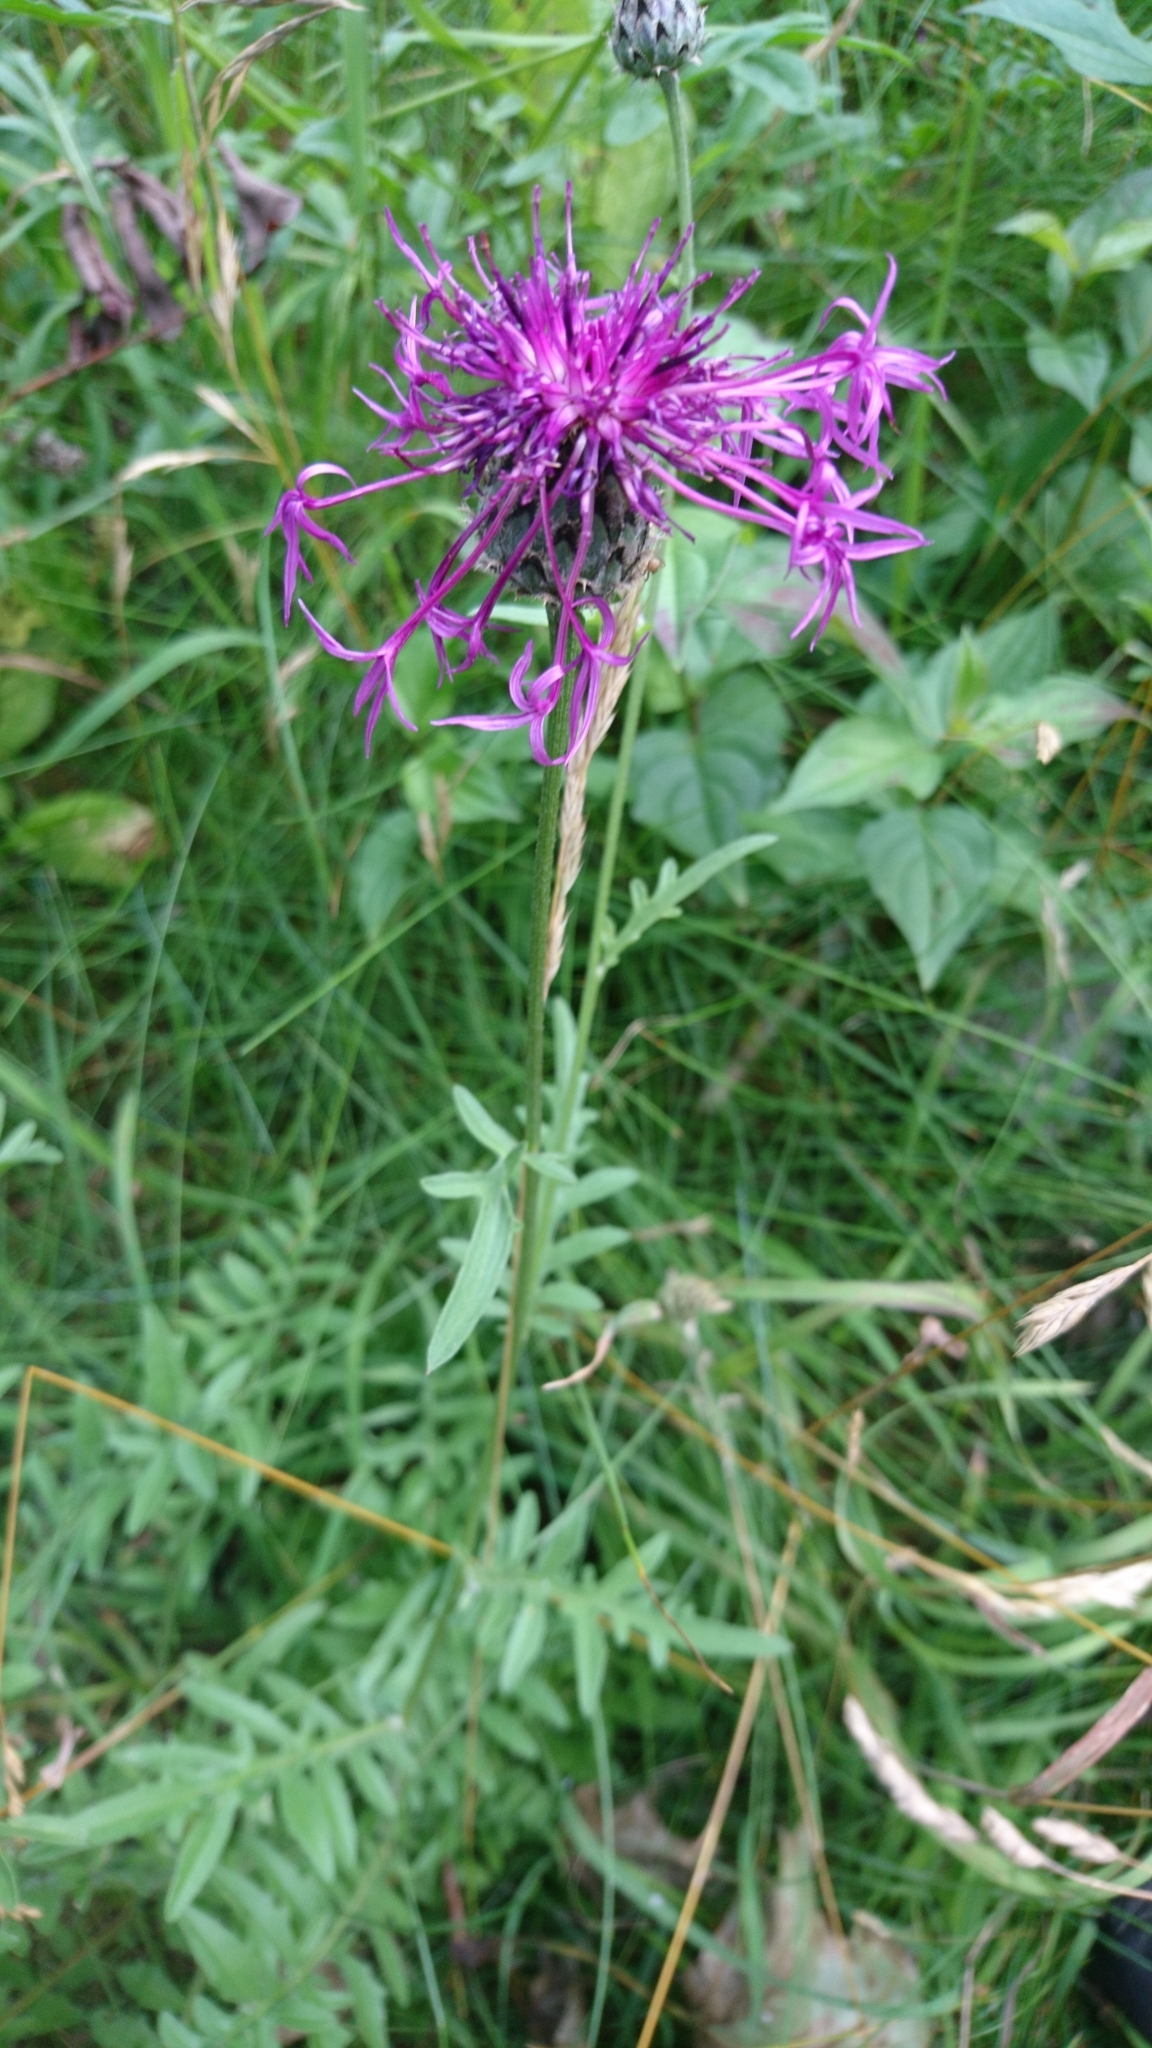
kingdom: Plantae
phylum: Tracheophyta
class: Magnoliopsida
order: Asterales
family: Asteraceae
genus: Centaurea
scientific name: Centaurea scabiosa
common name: Greater knapweed
